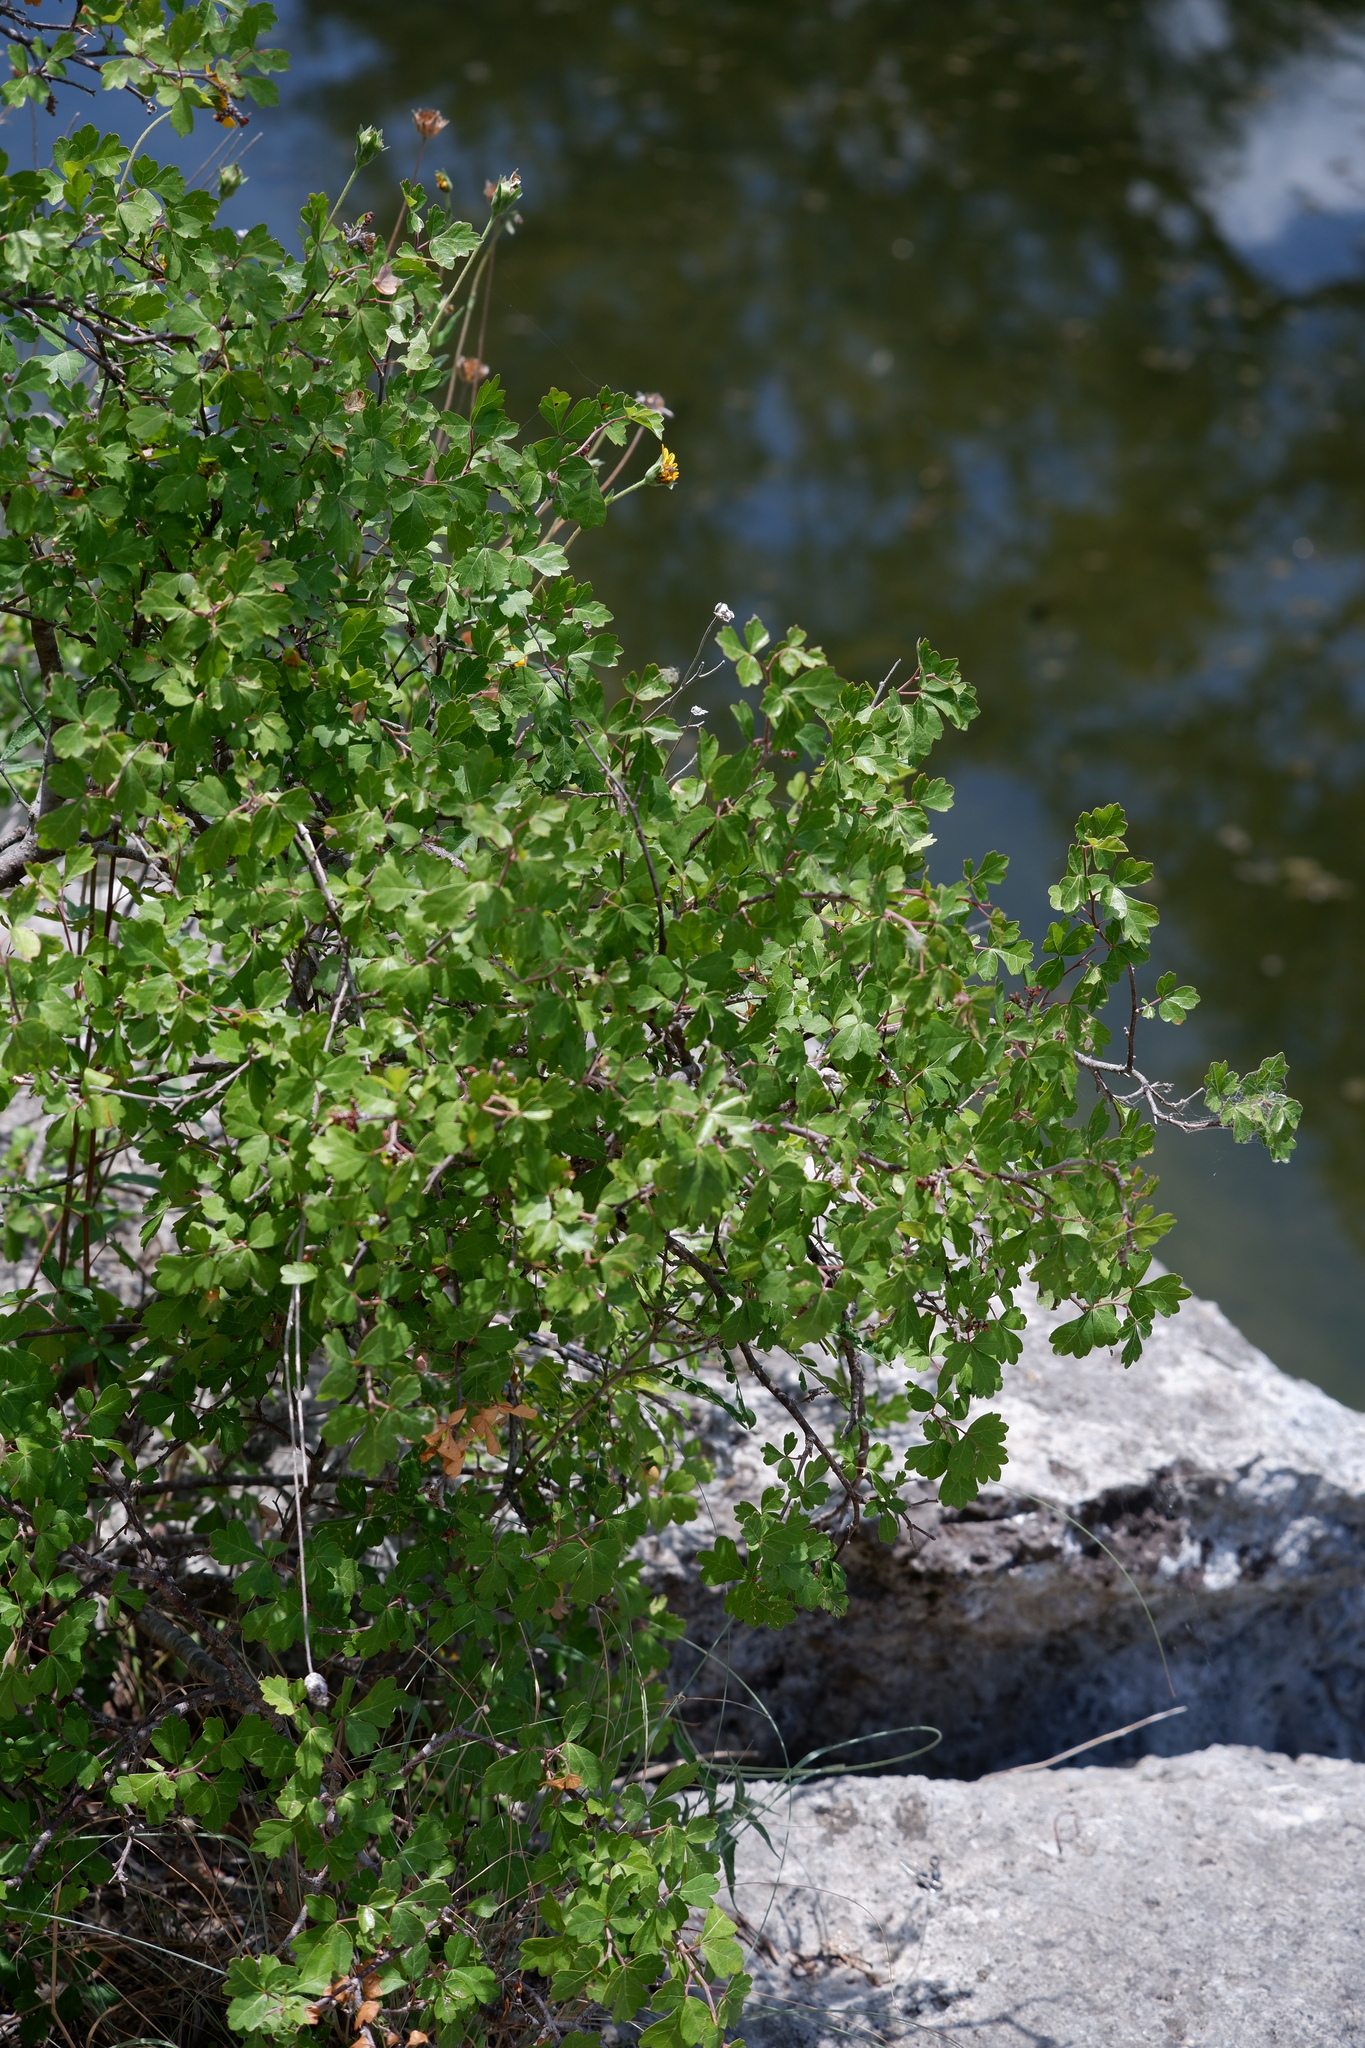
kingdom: Plantae
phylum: Tracheophyta
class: Magnoliopsida
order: Sapindales
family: Anacardiaceae
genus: Rhus
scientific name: Rhus trilobata
